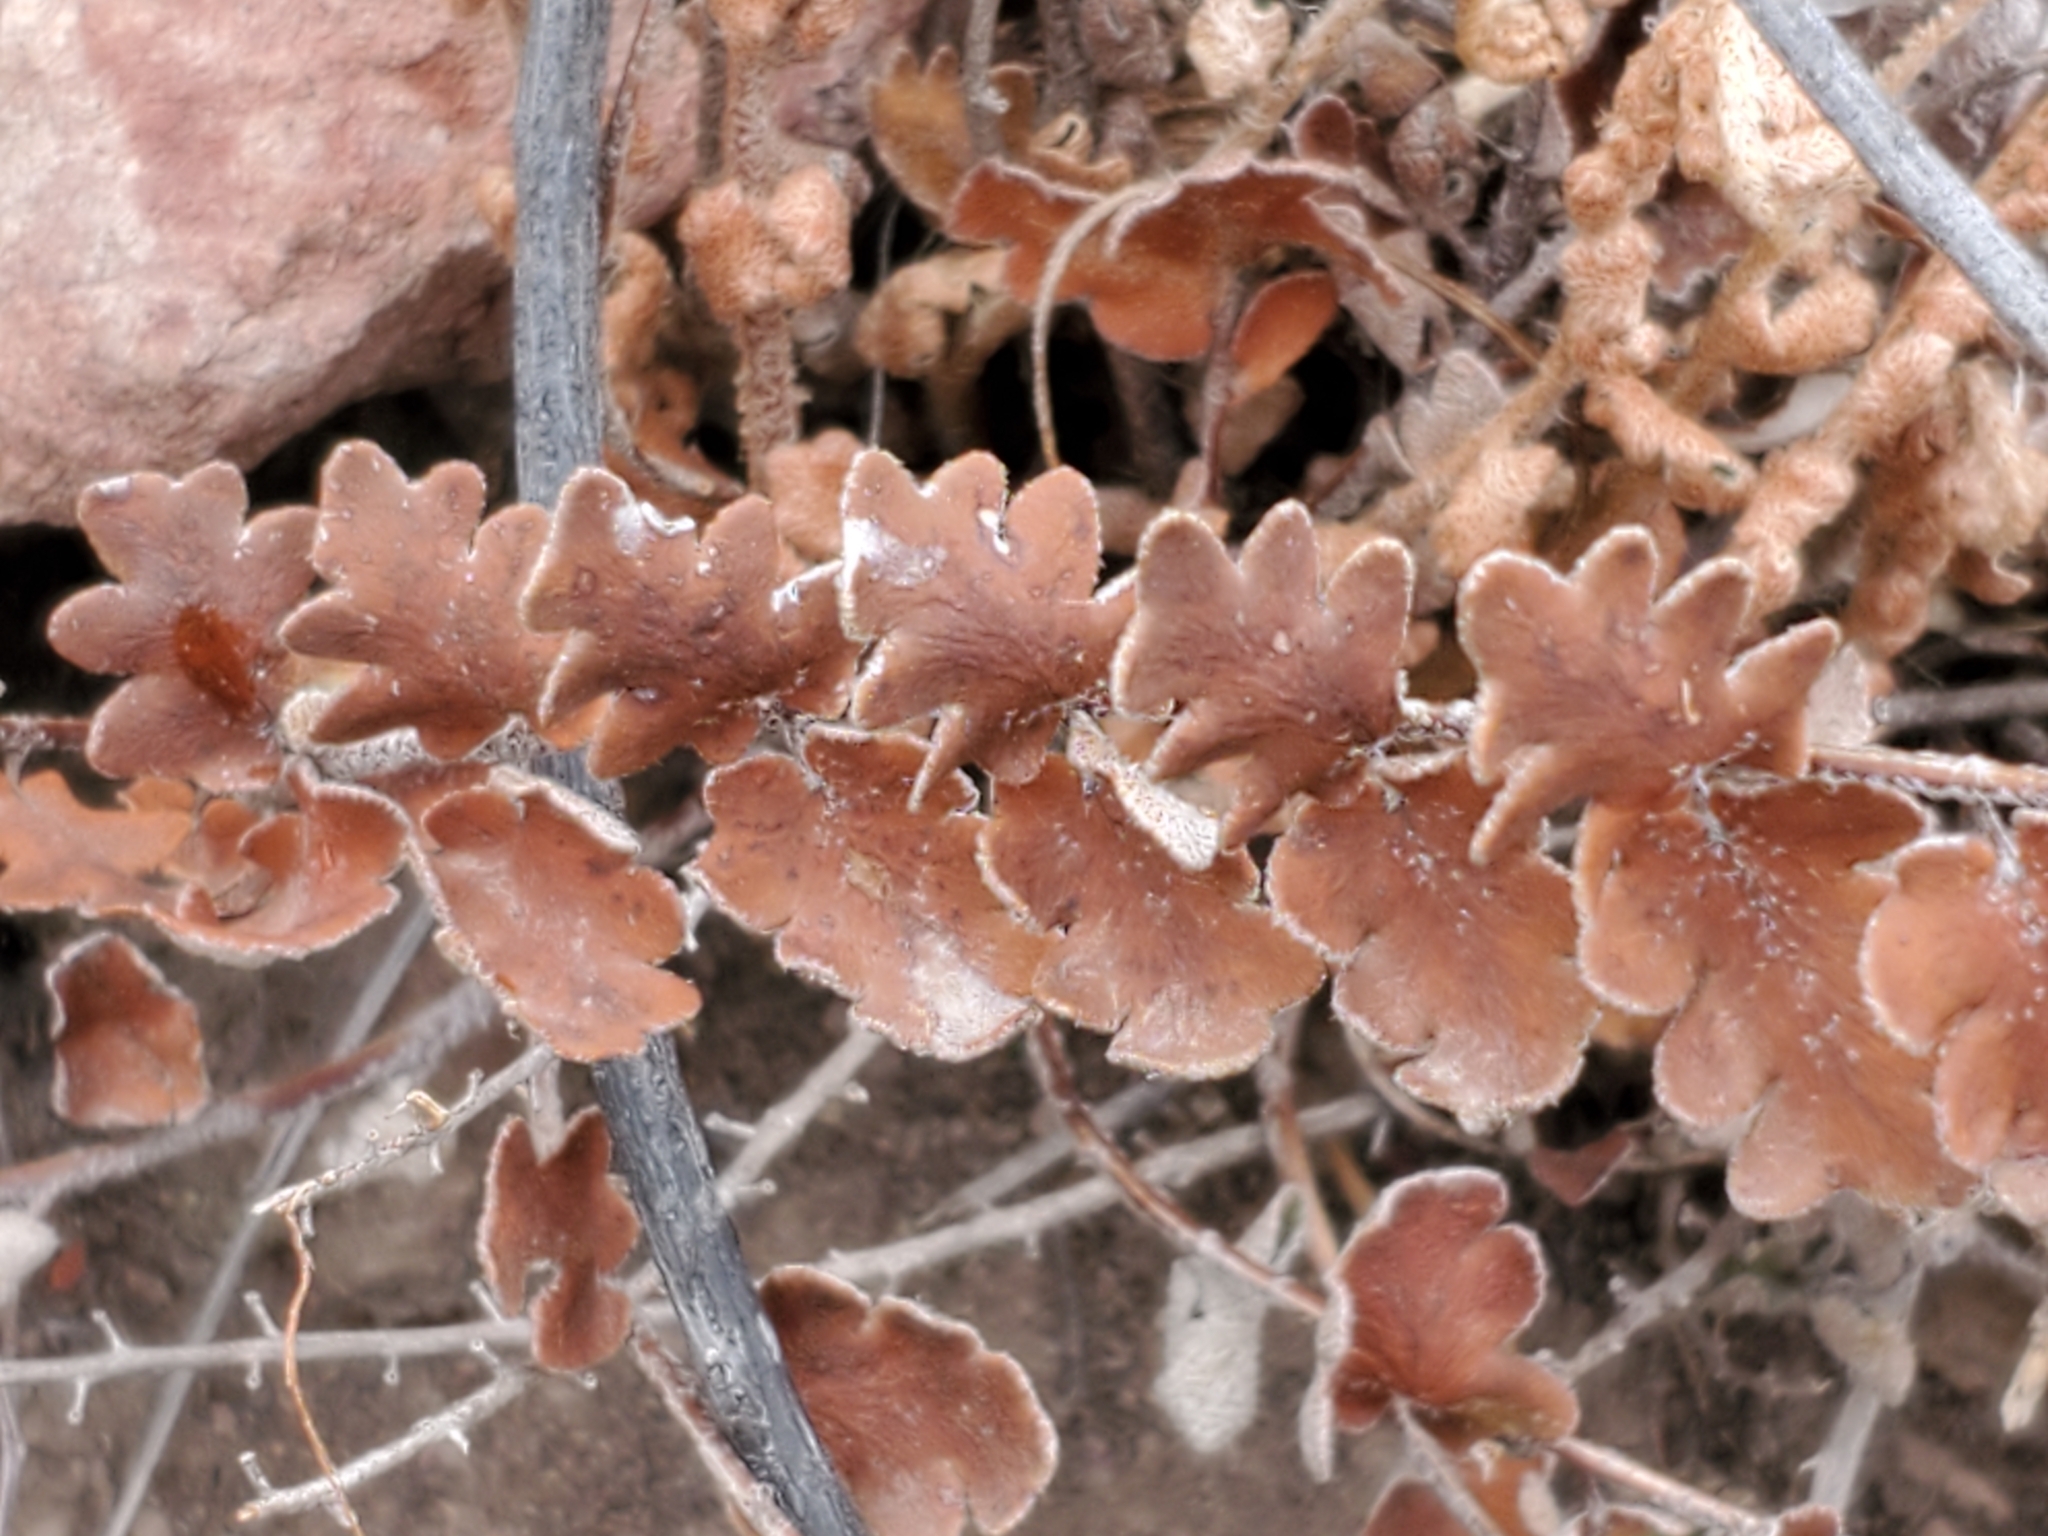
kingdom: Plantae
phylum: Tracheophyta
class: Polypodiopsida
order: Polypodiales
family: Pteridaceae
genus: Astrolepis
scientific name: Astrolepis sinuata
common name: Wavy scaly cloakfern
